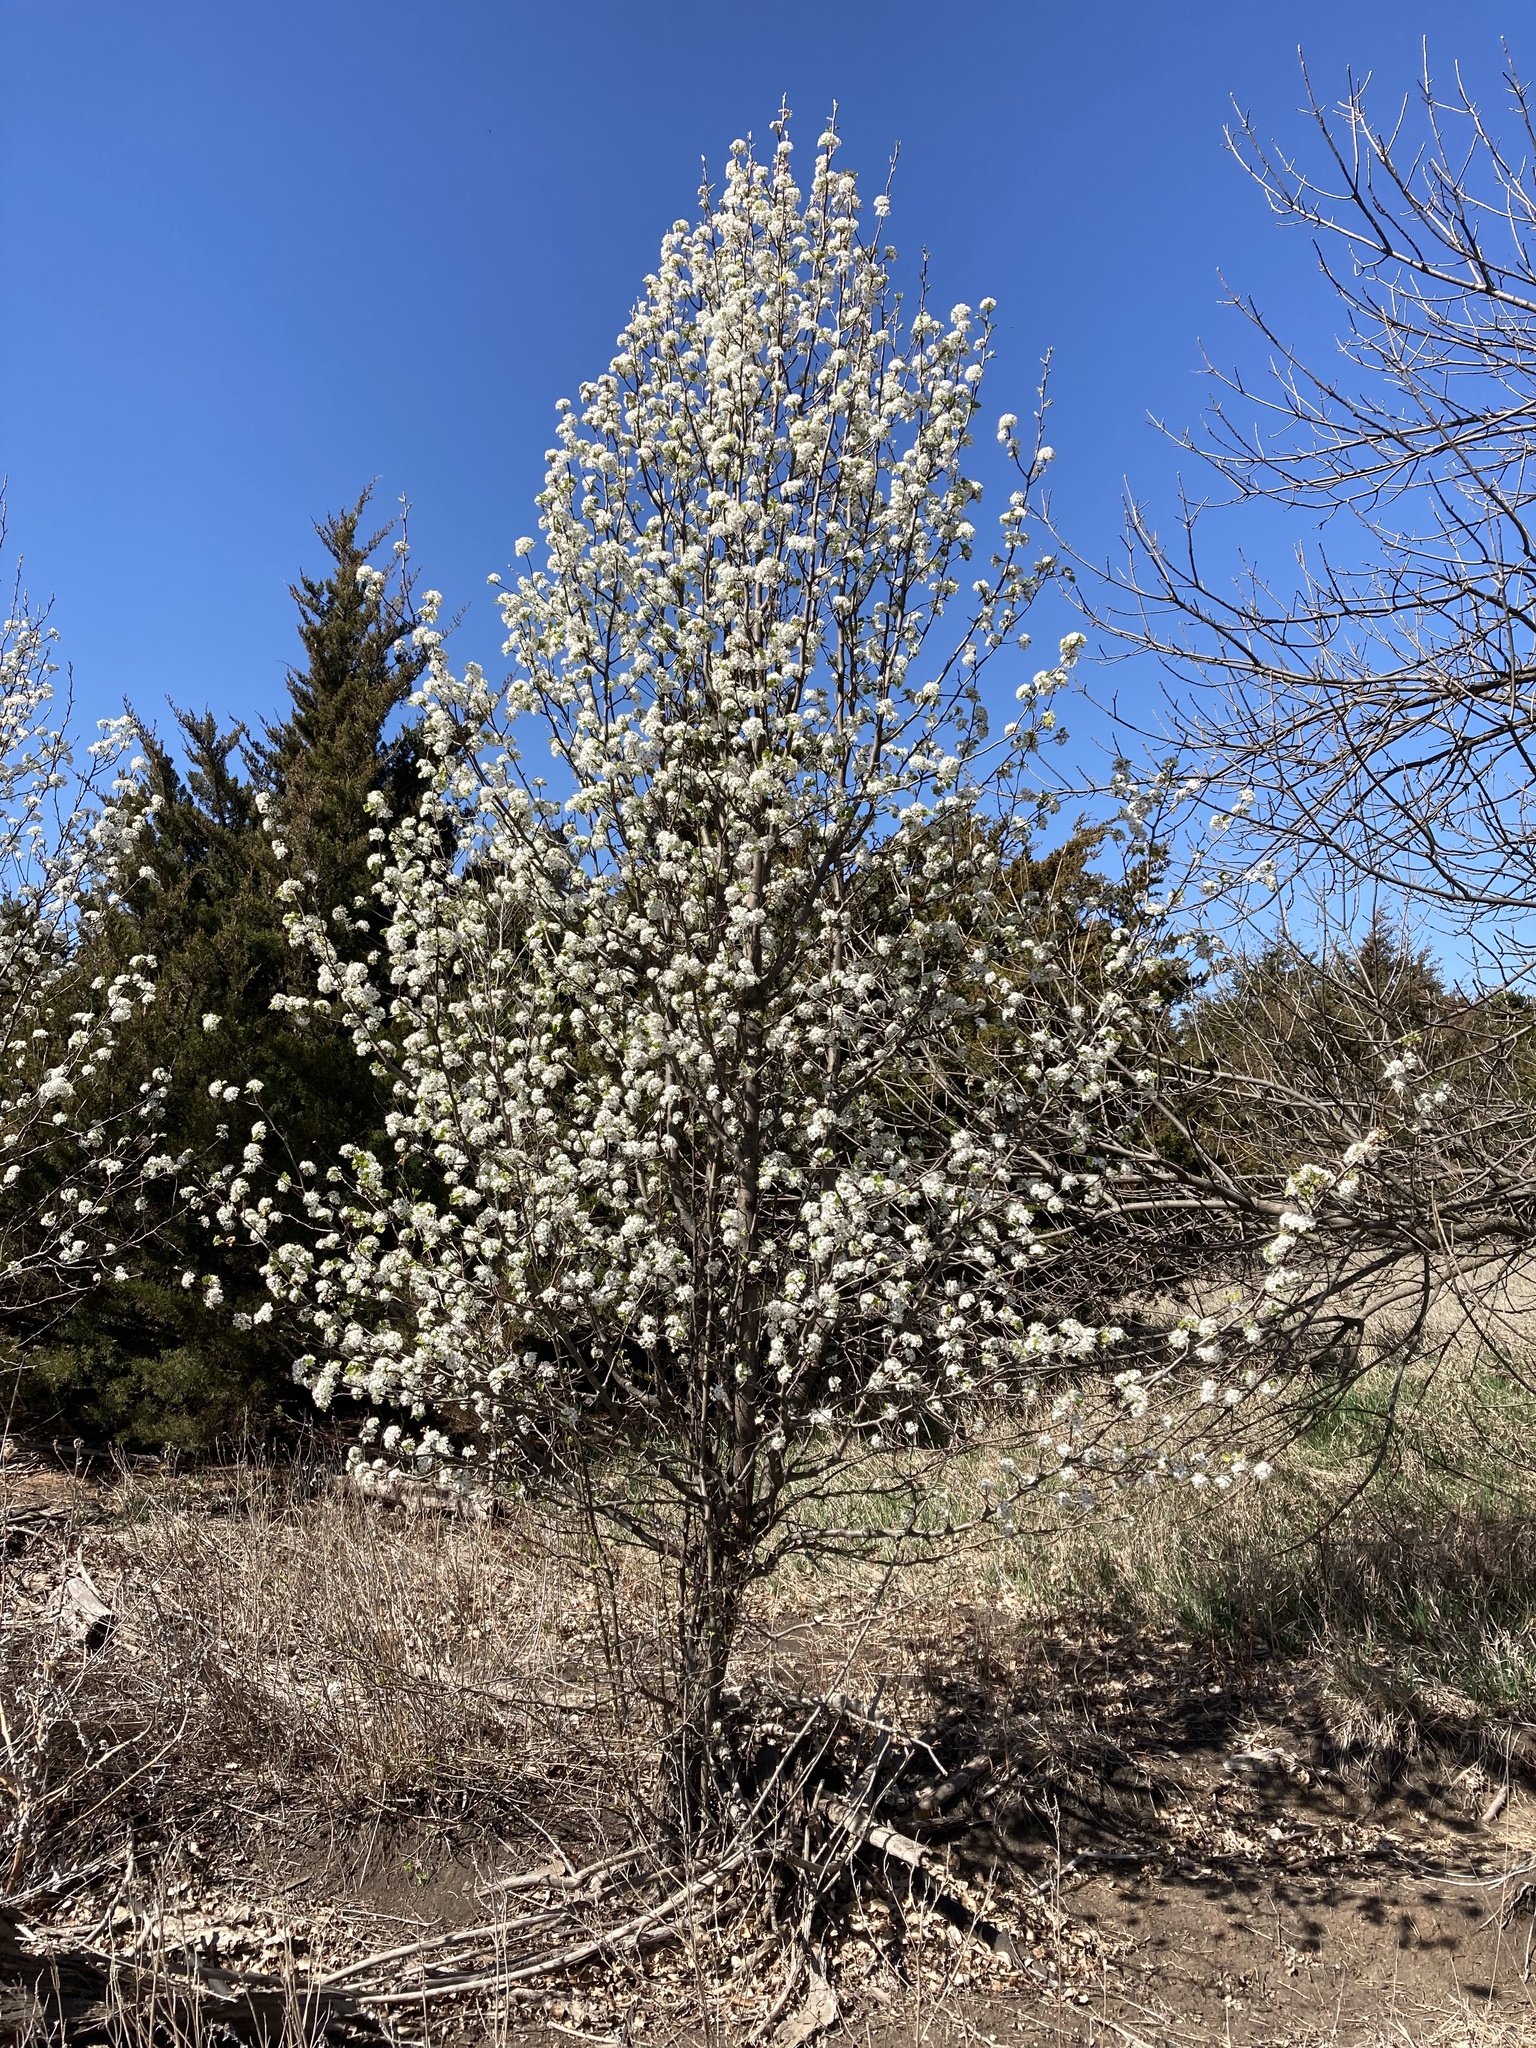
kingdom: Plantae
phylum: Tracheophyta
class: Magnoliopsida
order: Rosales
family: Rosaceae
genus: Pyrus
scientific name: Pyrus calleryana
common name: Callery pear
